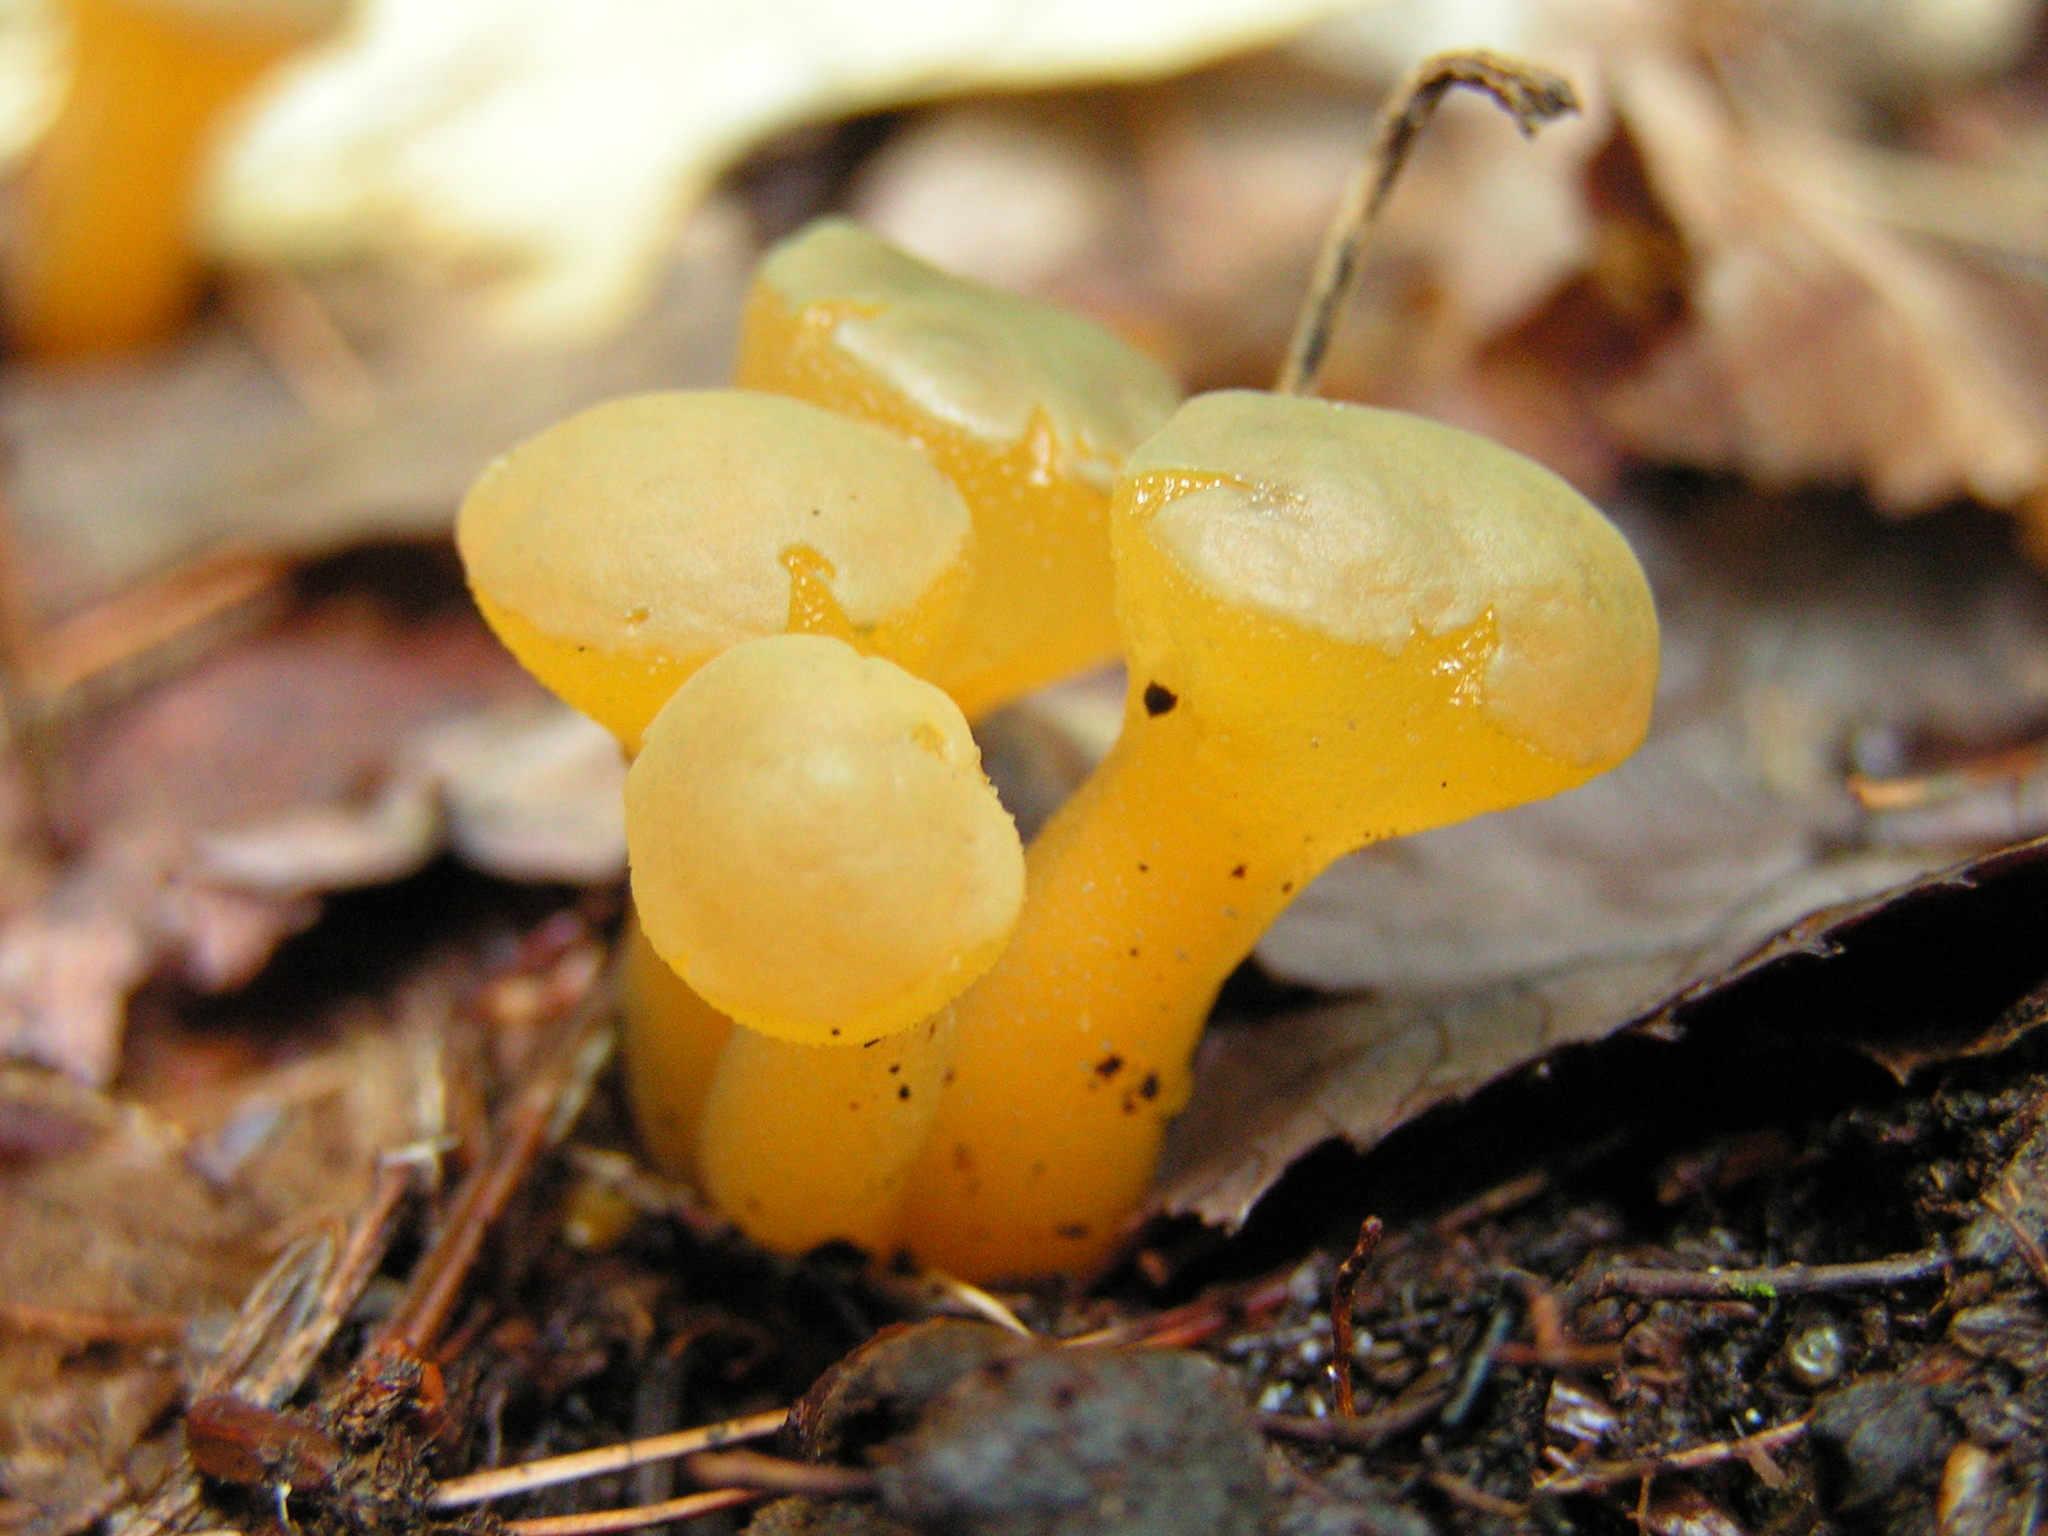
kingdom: Fungi
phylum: Ascomycota
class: Leotiomycetes
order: Leotiales
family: Leotiaceae
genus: Leotia
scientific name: Leotia lubrica
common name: Jellybaby
